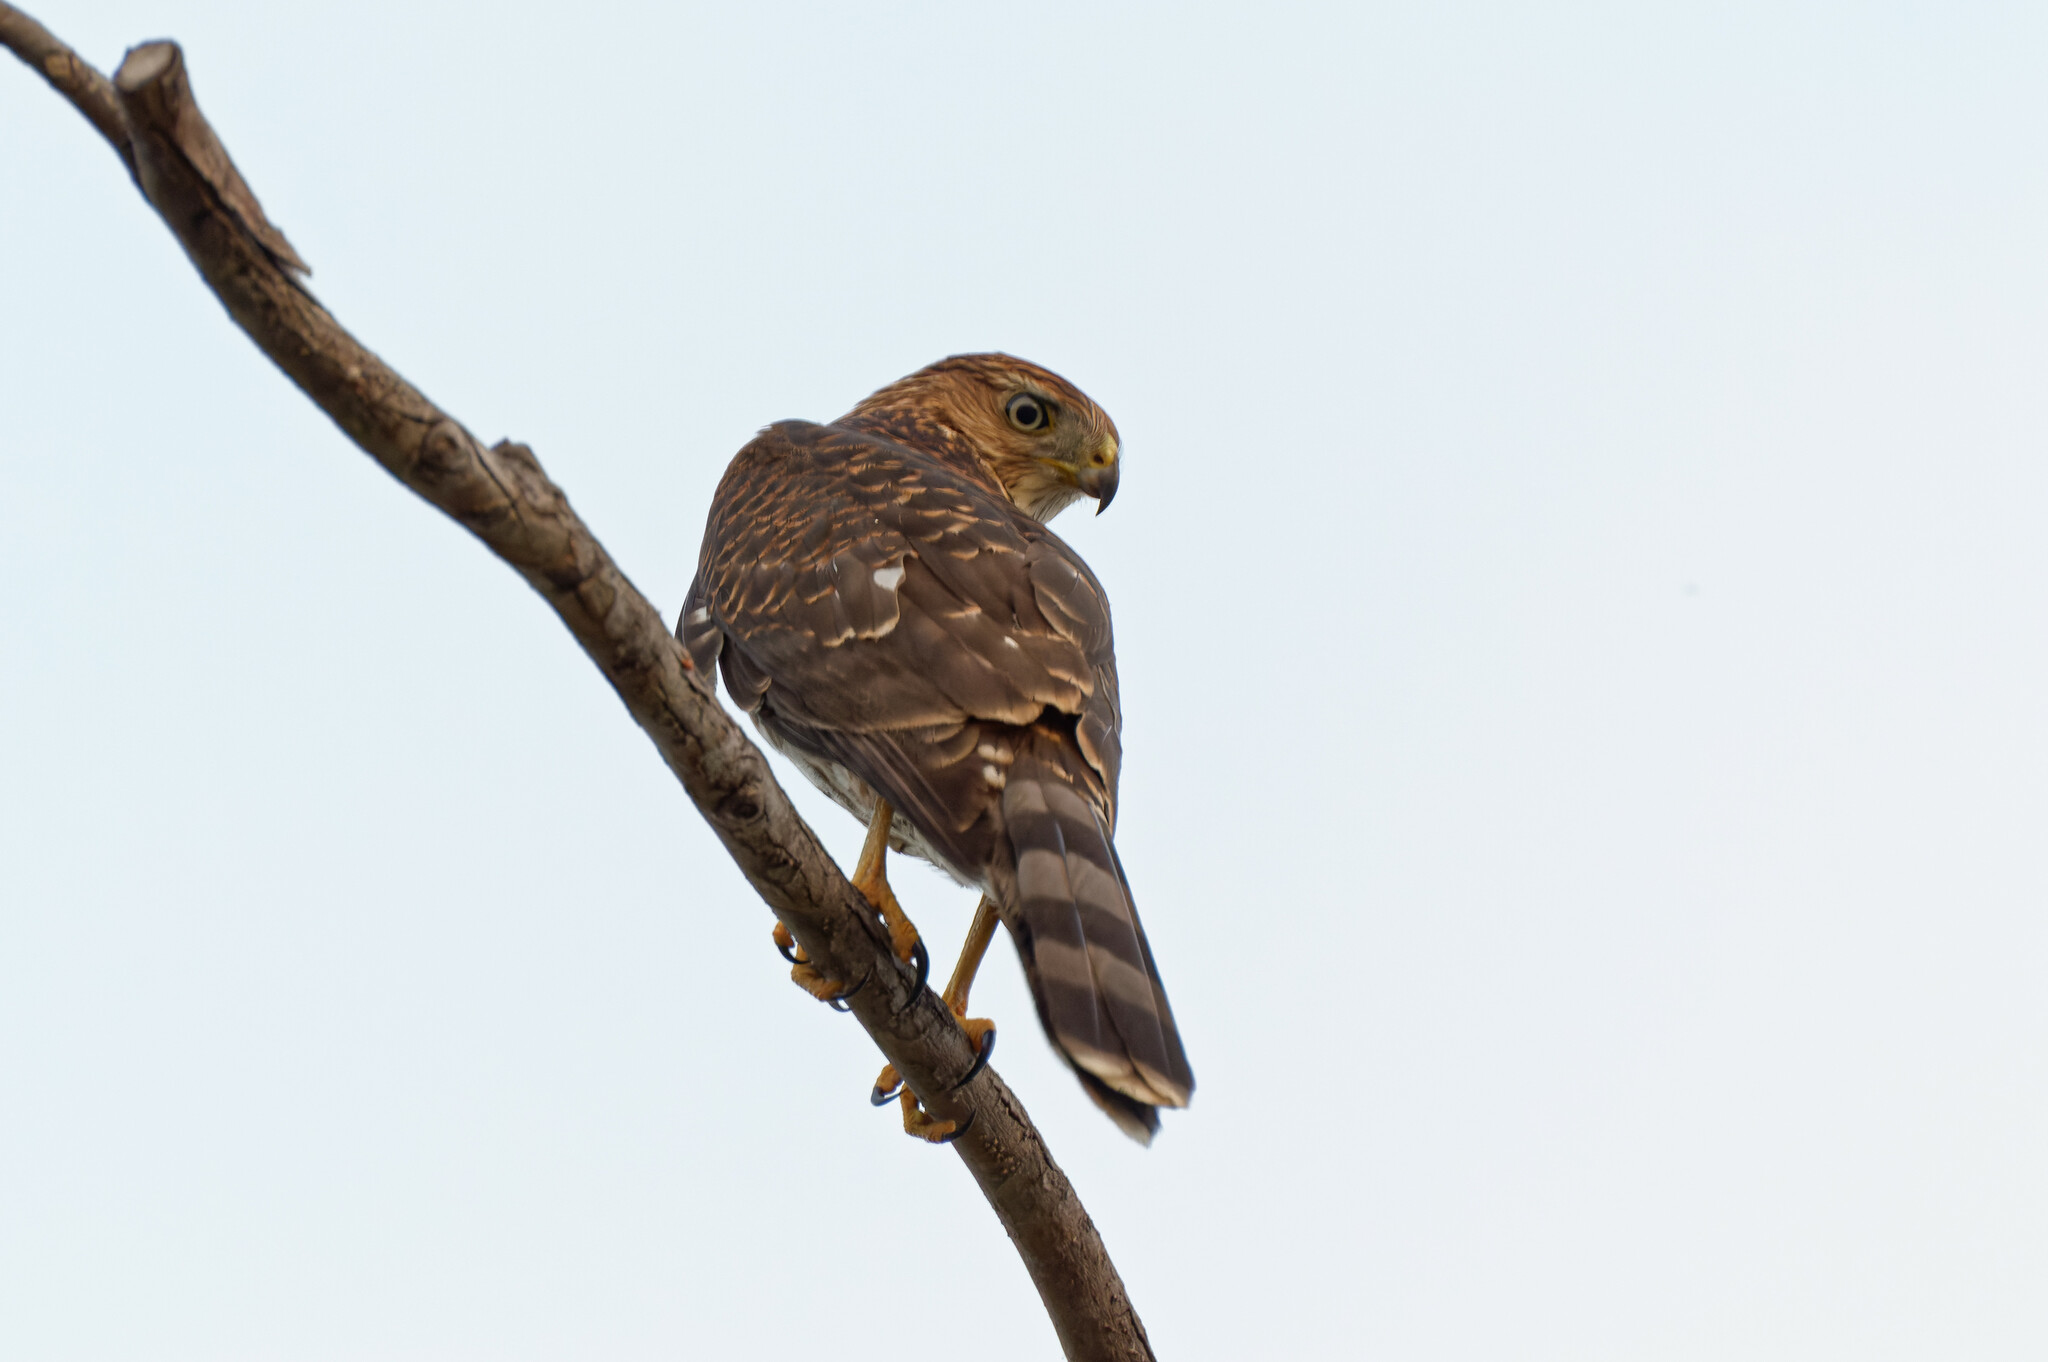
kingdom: Animalia
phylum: Chordata
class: Aves
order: Accipitriformes
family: Accipitridae
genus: Accipiter
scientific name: Accipiter cooperii
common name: Cooper's hawk
